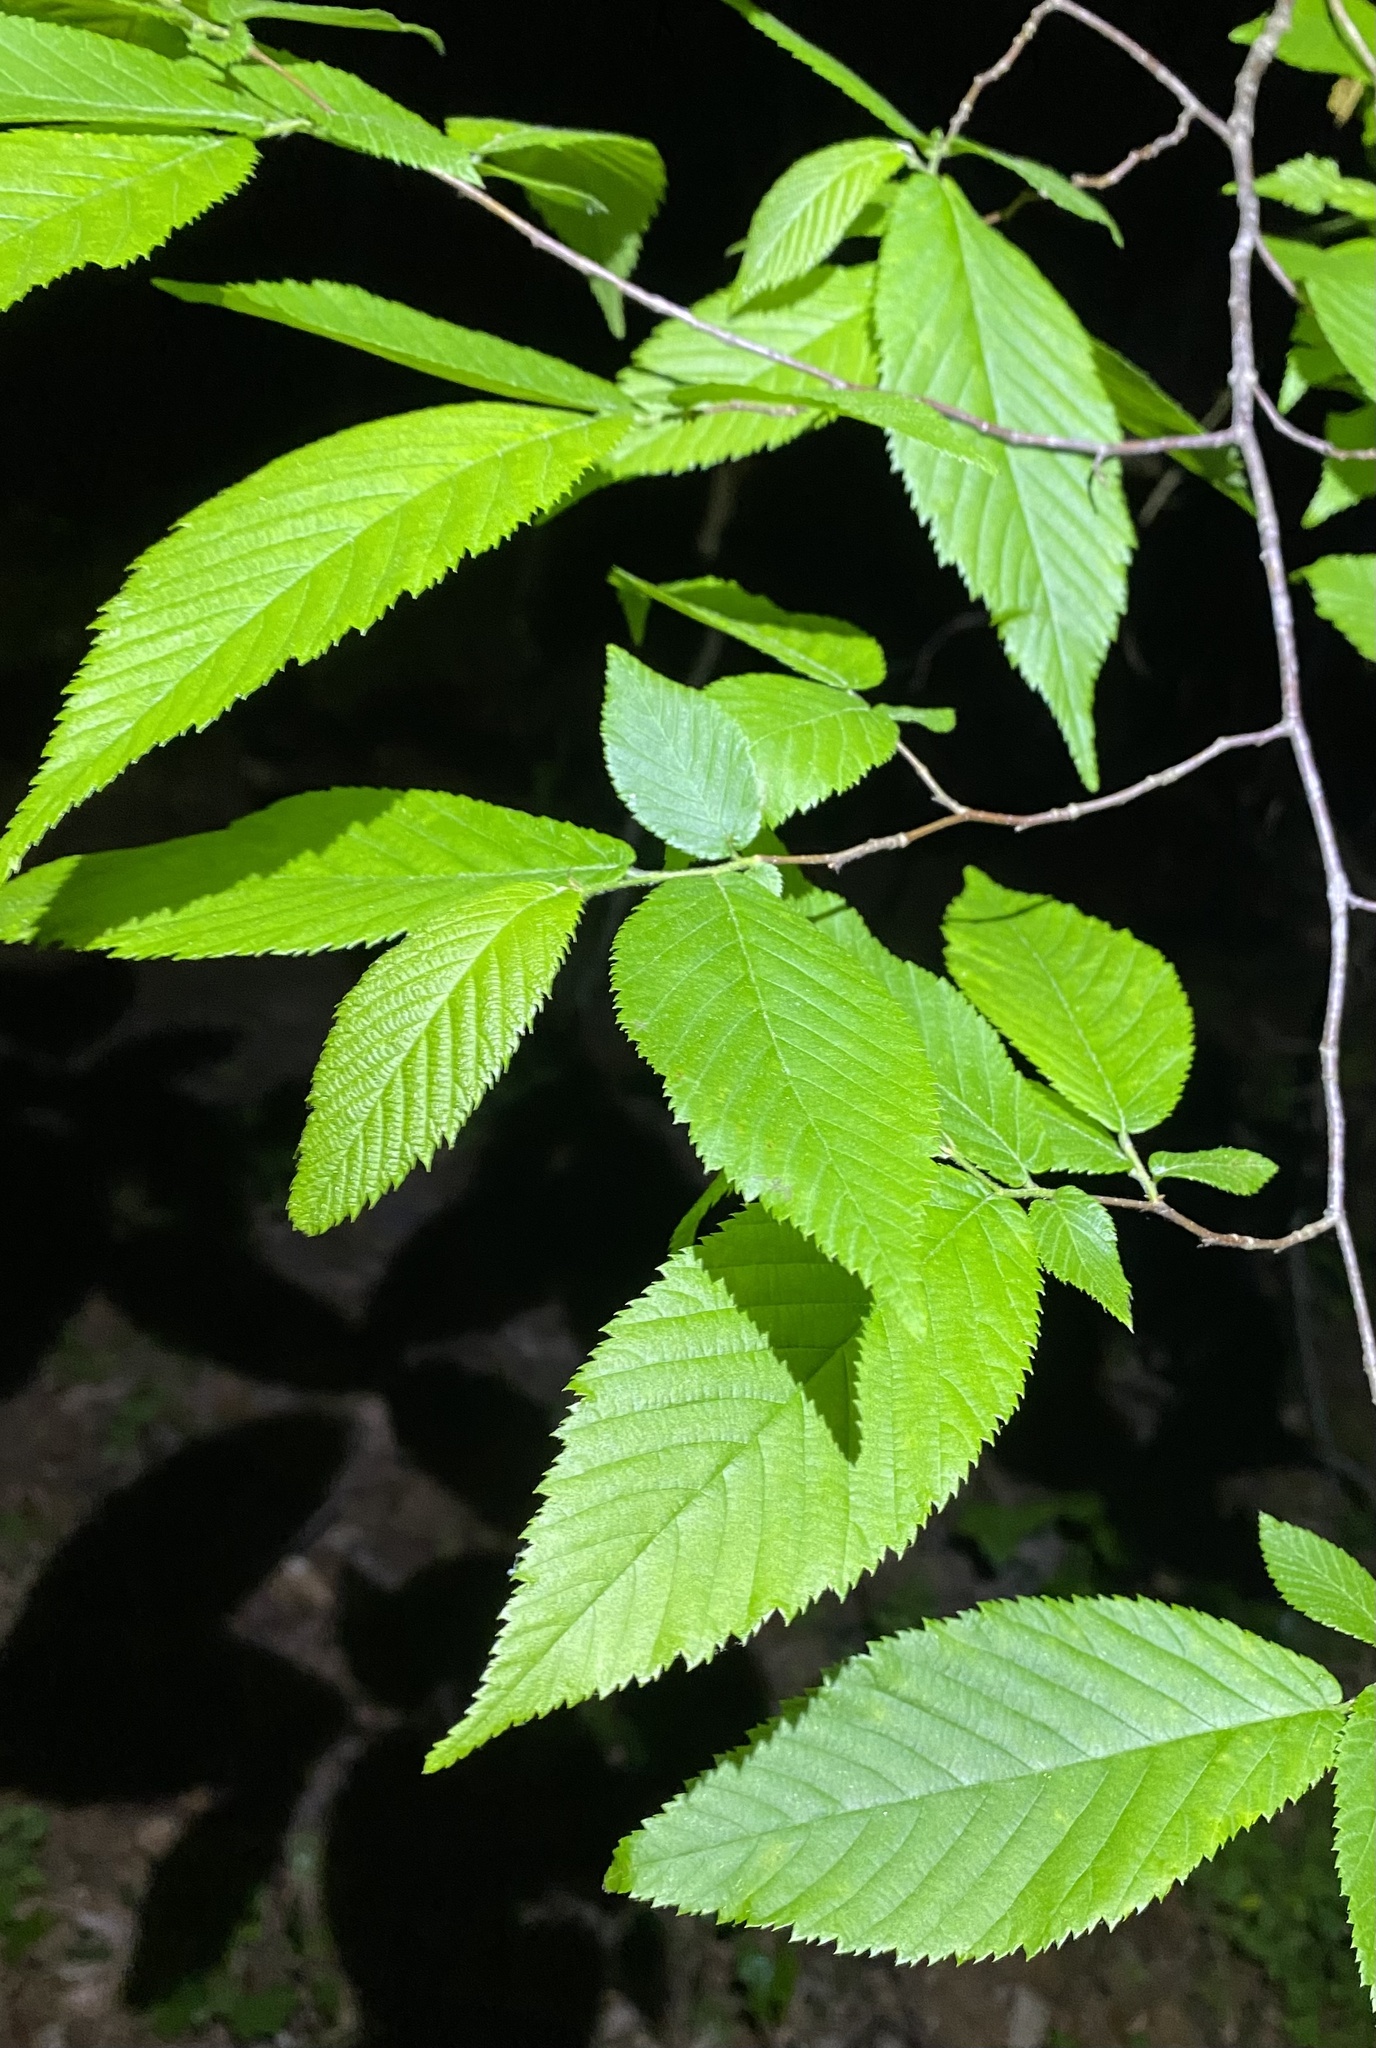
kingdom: Animalia
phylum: Arthropoda
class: Insecta
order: Lepidoptera
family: Noctuidae
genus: Pyreferra
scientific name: Pyreferra slotteni
